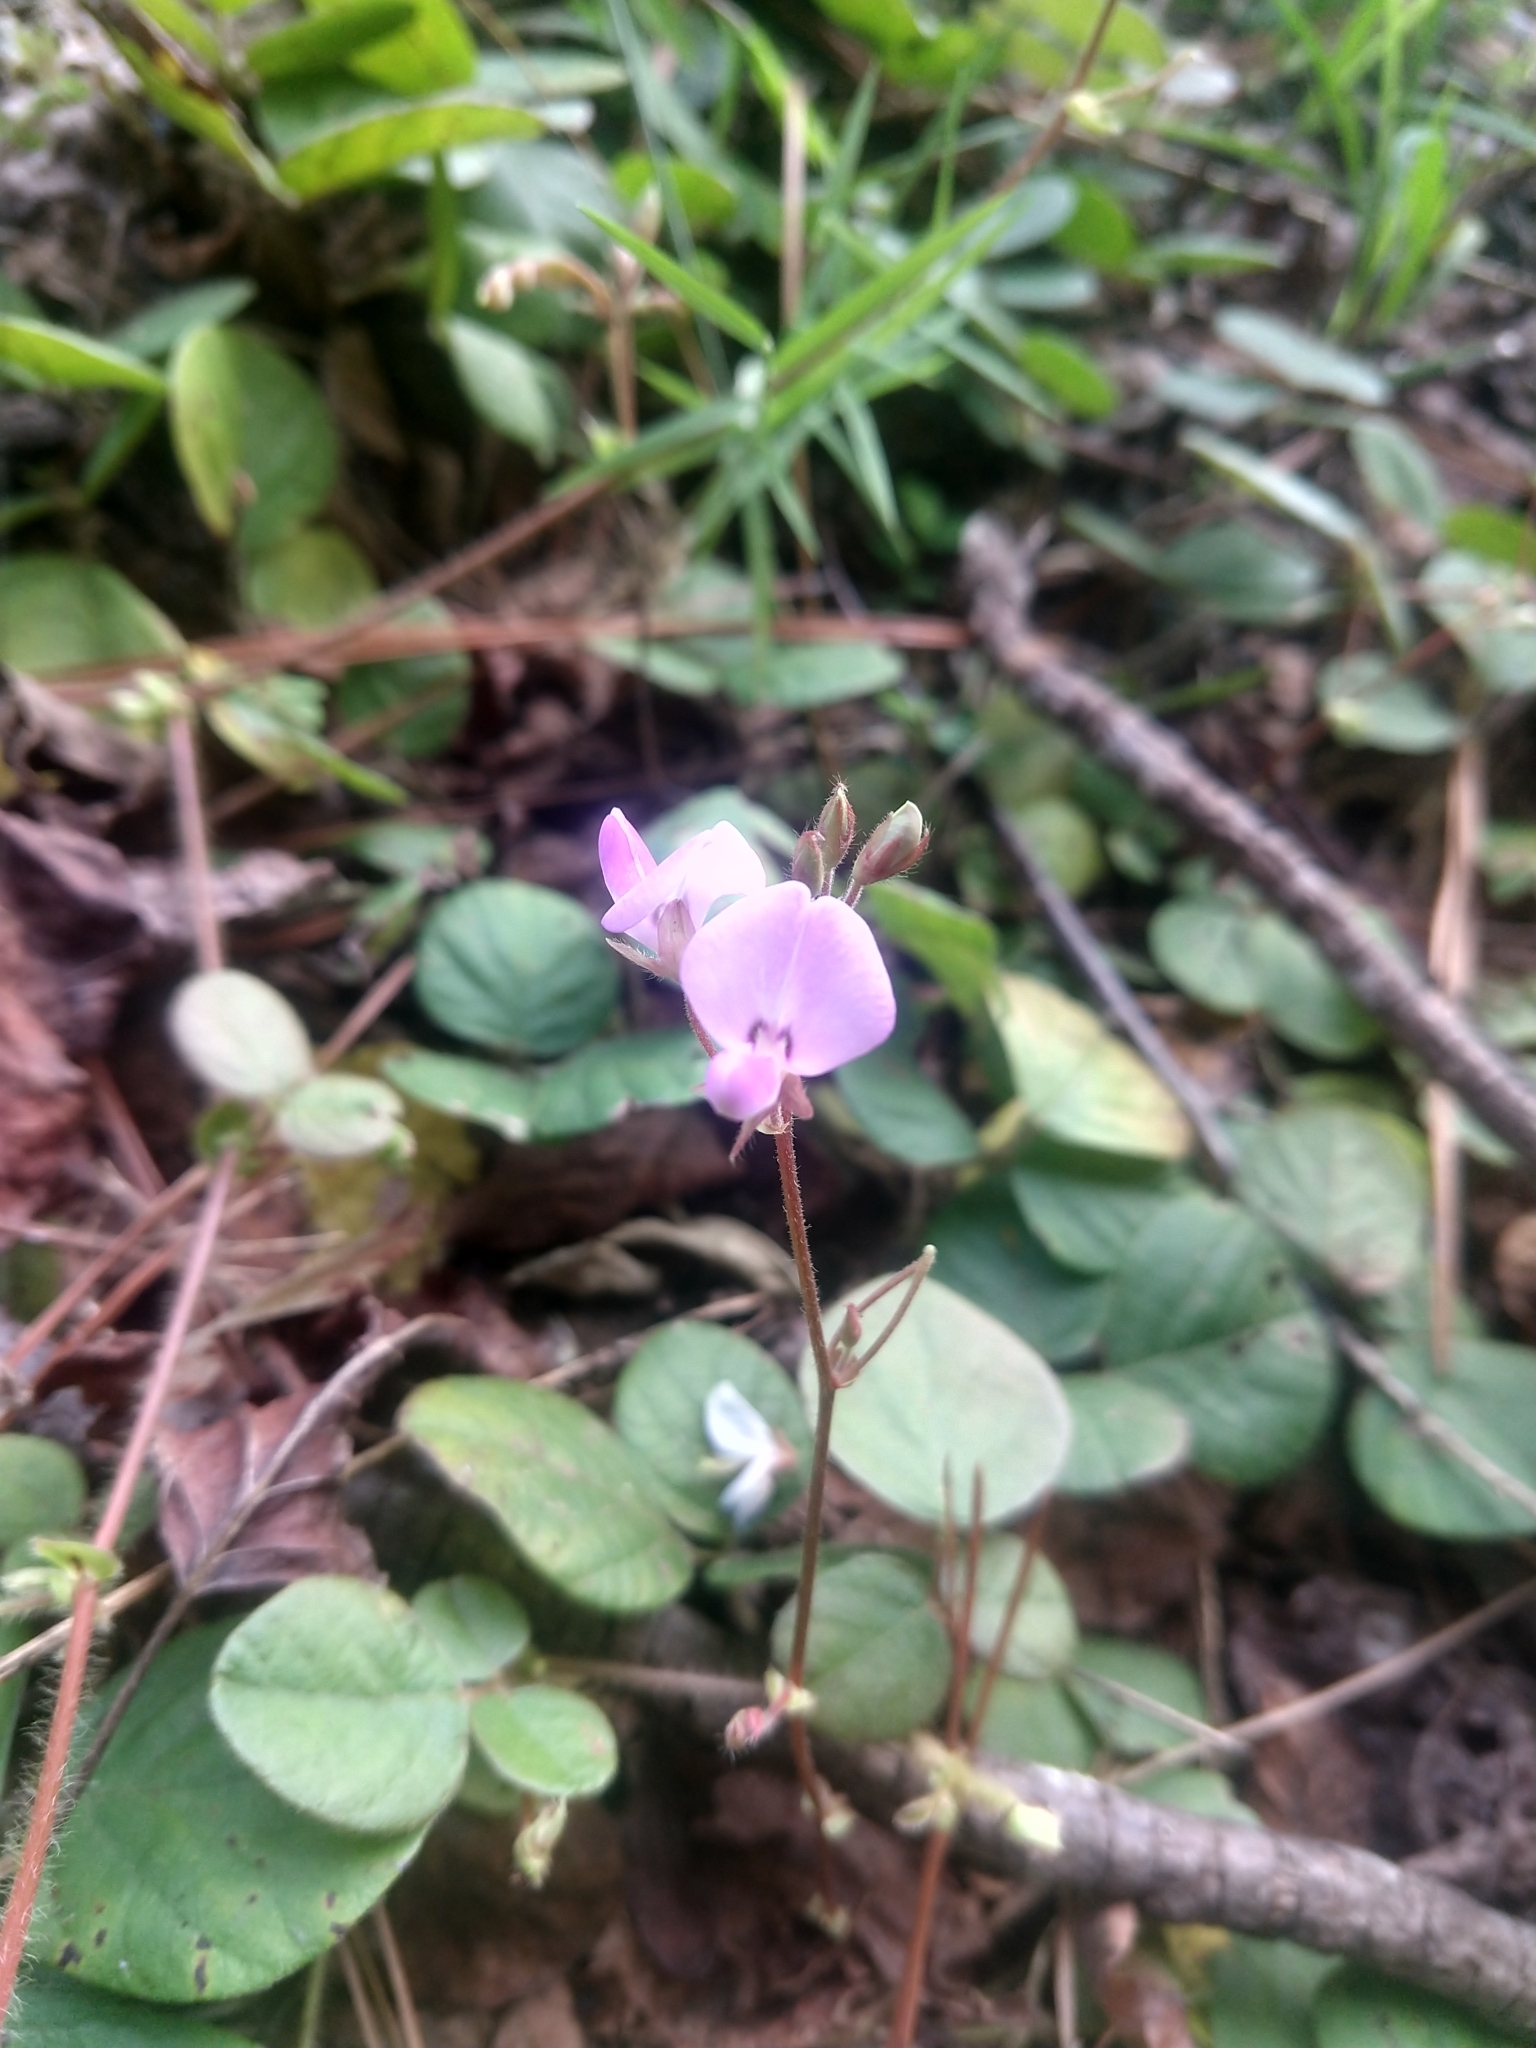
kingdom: Plantae
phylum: Tracheophyta
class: Magnoliopsida
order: Fabales
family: Fabaceae
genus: Desmodium
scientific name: Desmodium rotundifolium
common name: Dollarleaf
